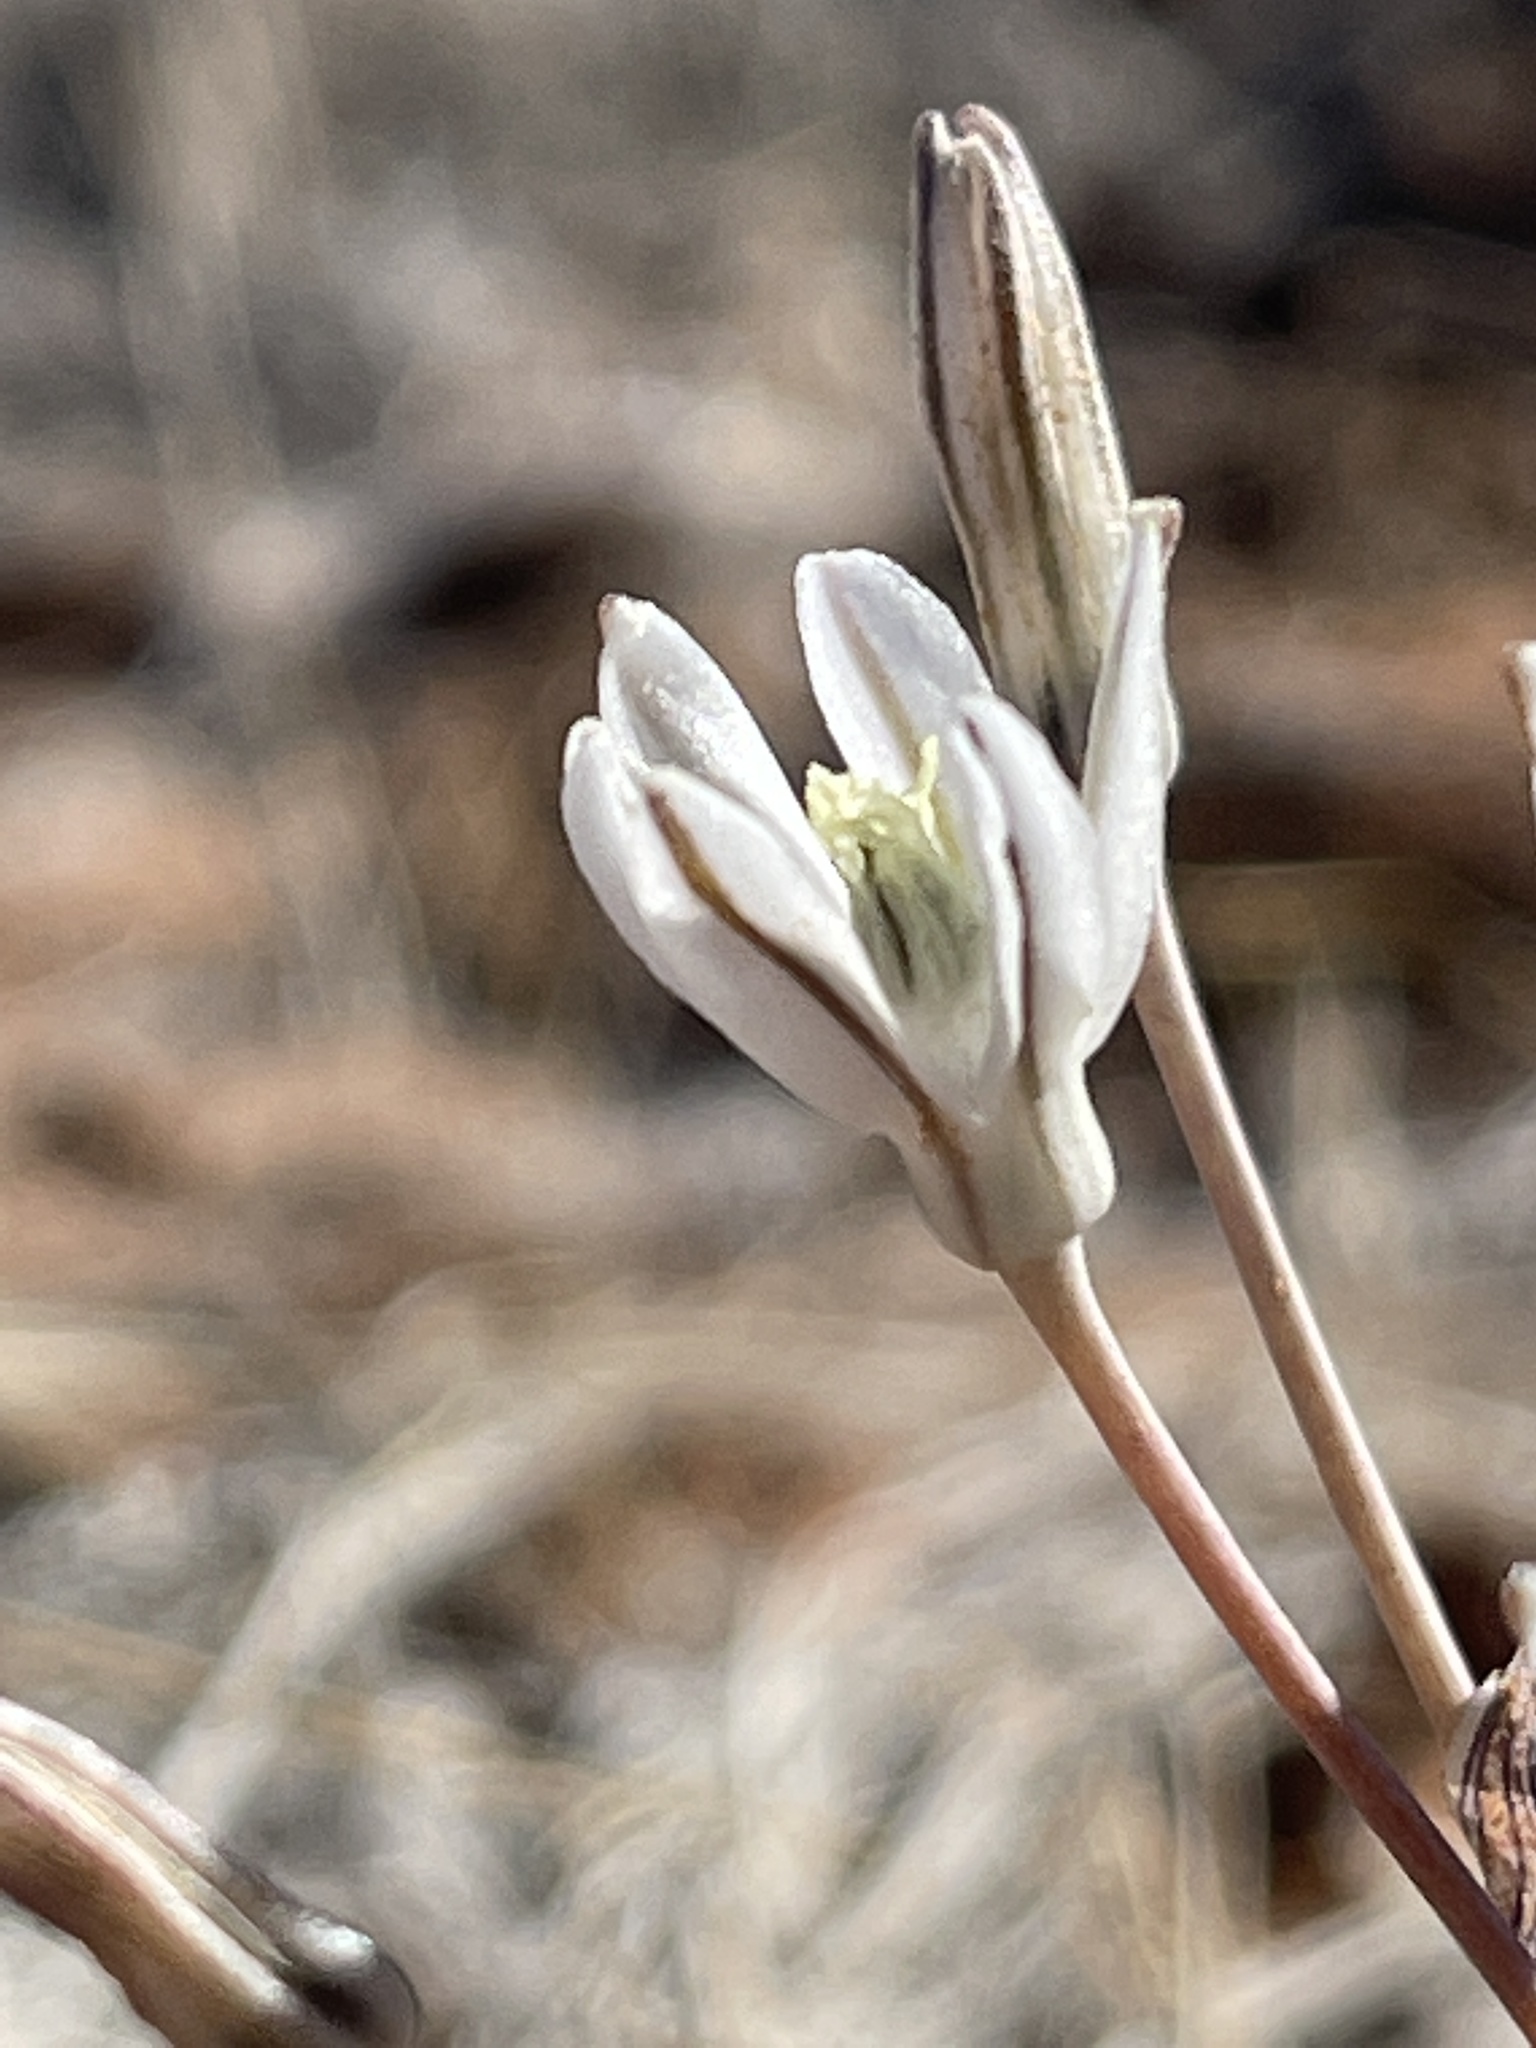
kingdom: Plantae
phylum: Tracheophyta
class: Liliopsida
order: Asparagales
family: Asparagaceae
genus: Androstephium
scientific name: Androstephium breviflorum
